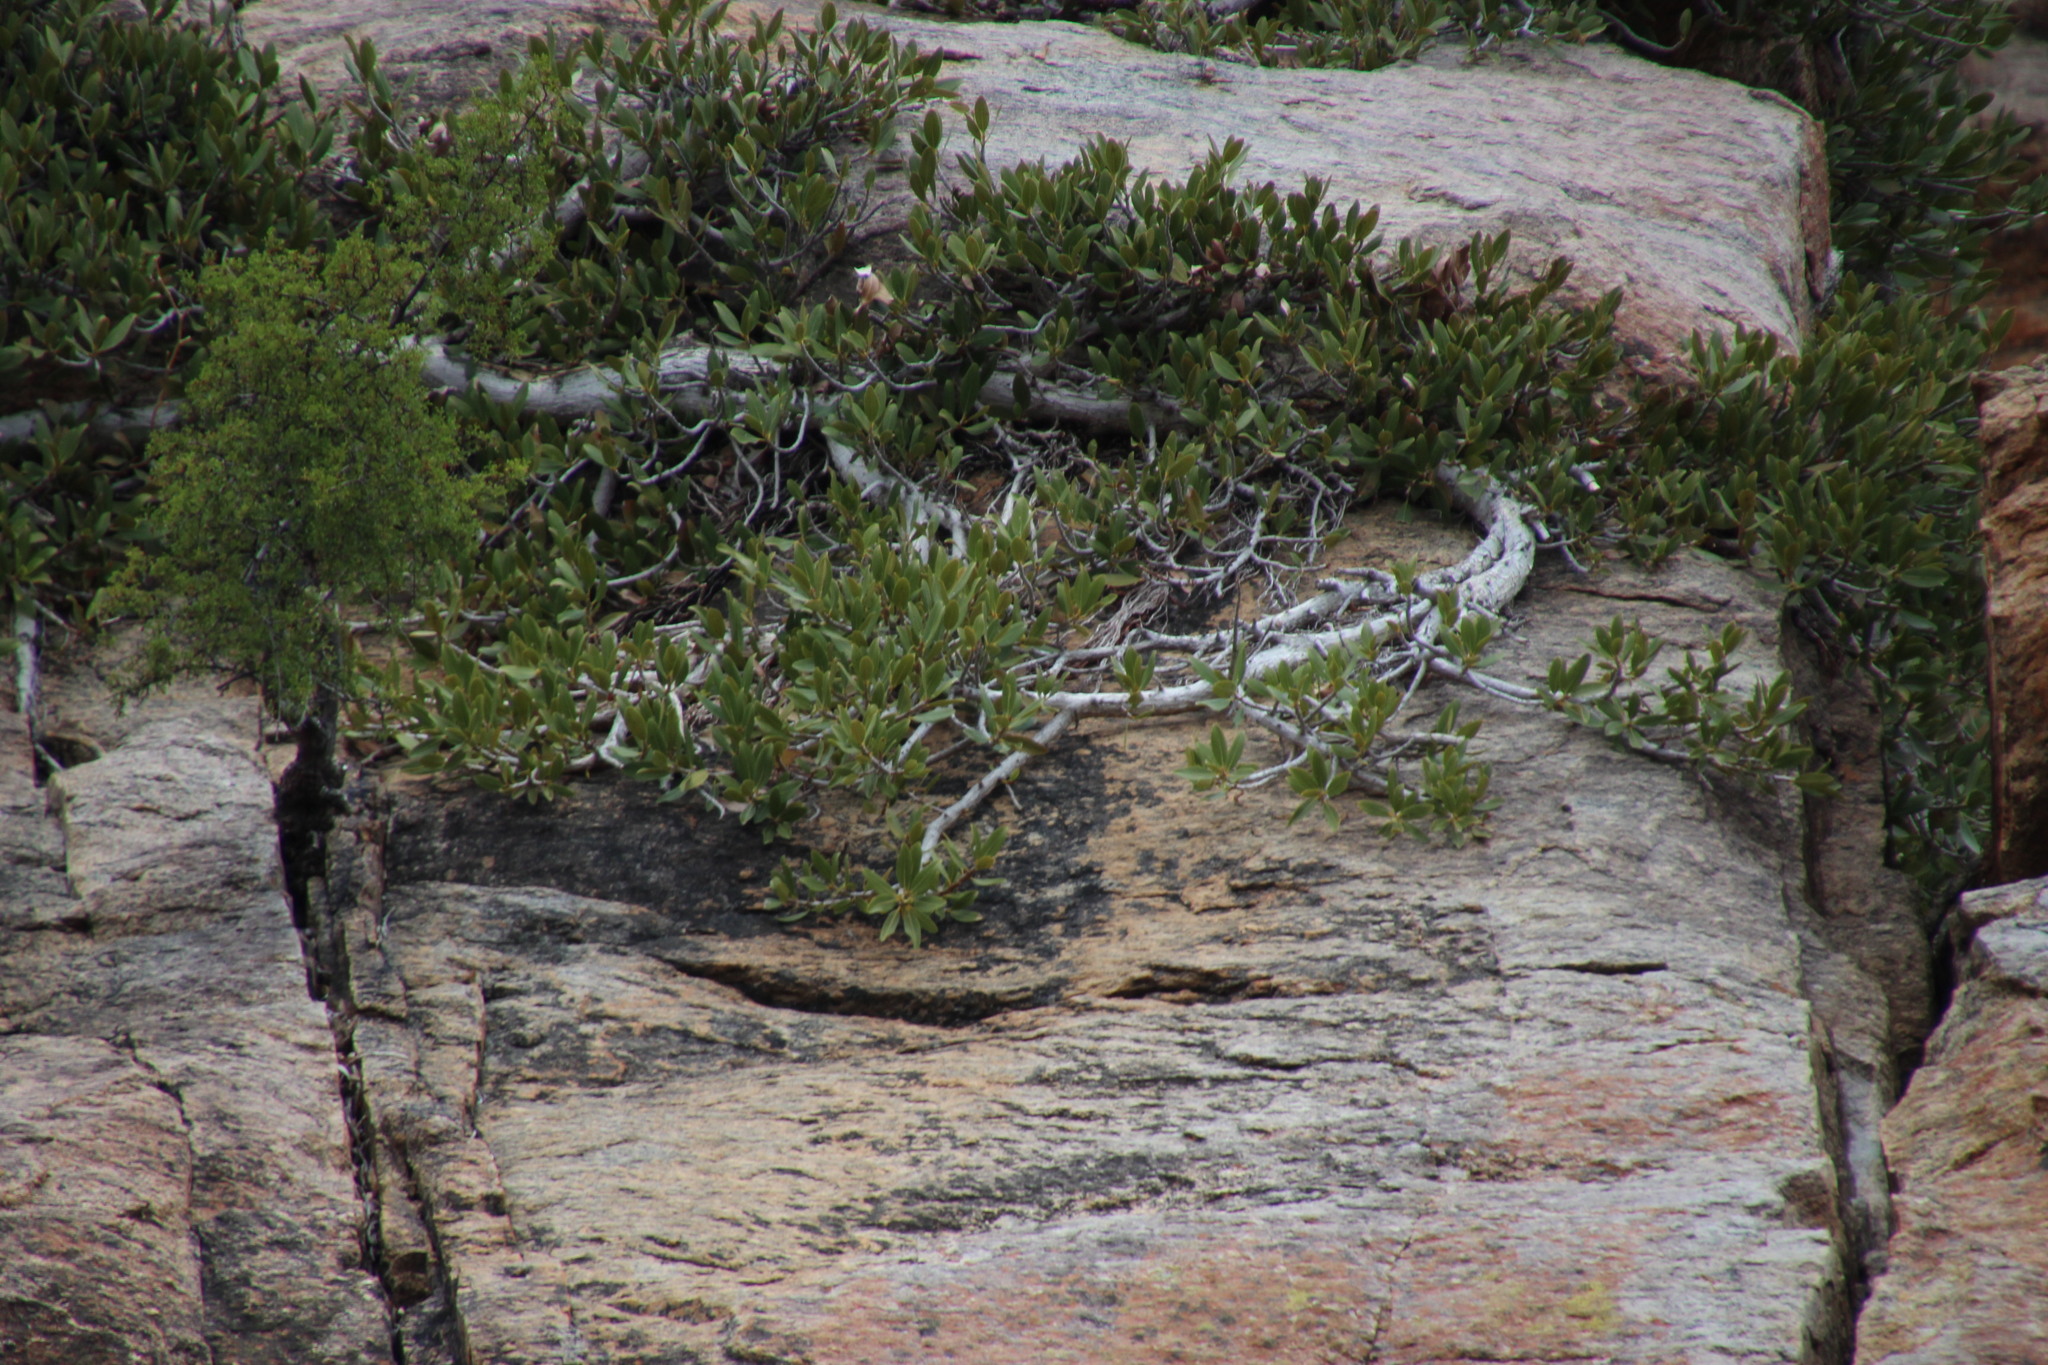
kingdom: Plantae
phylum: Tracheophyta
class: Magnoliopsida
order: Rosales
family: Moraceae
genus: Ficus
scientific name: Ficus ilicina
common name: Laurel rock fig
